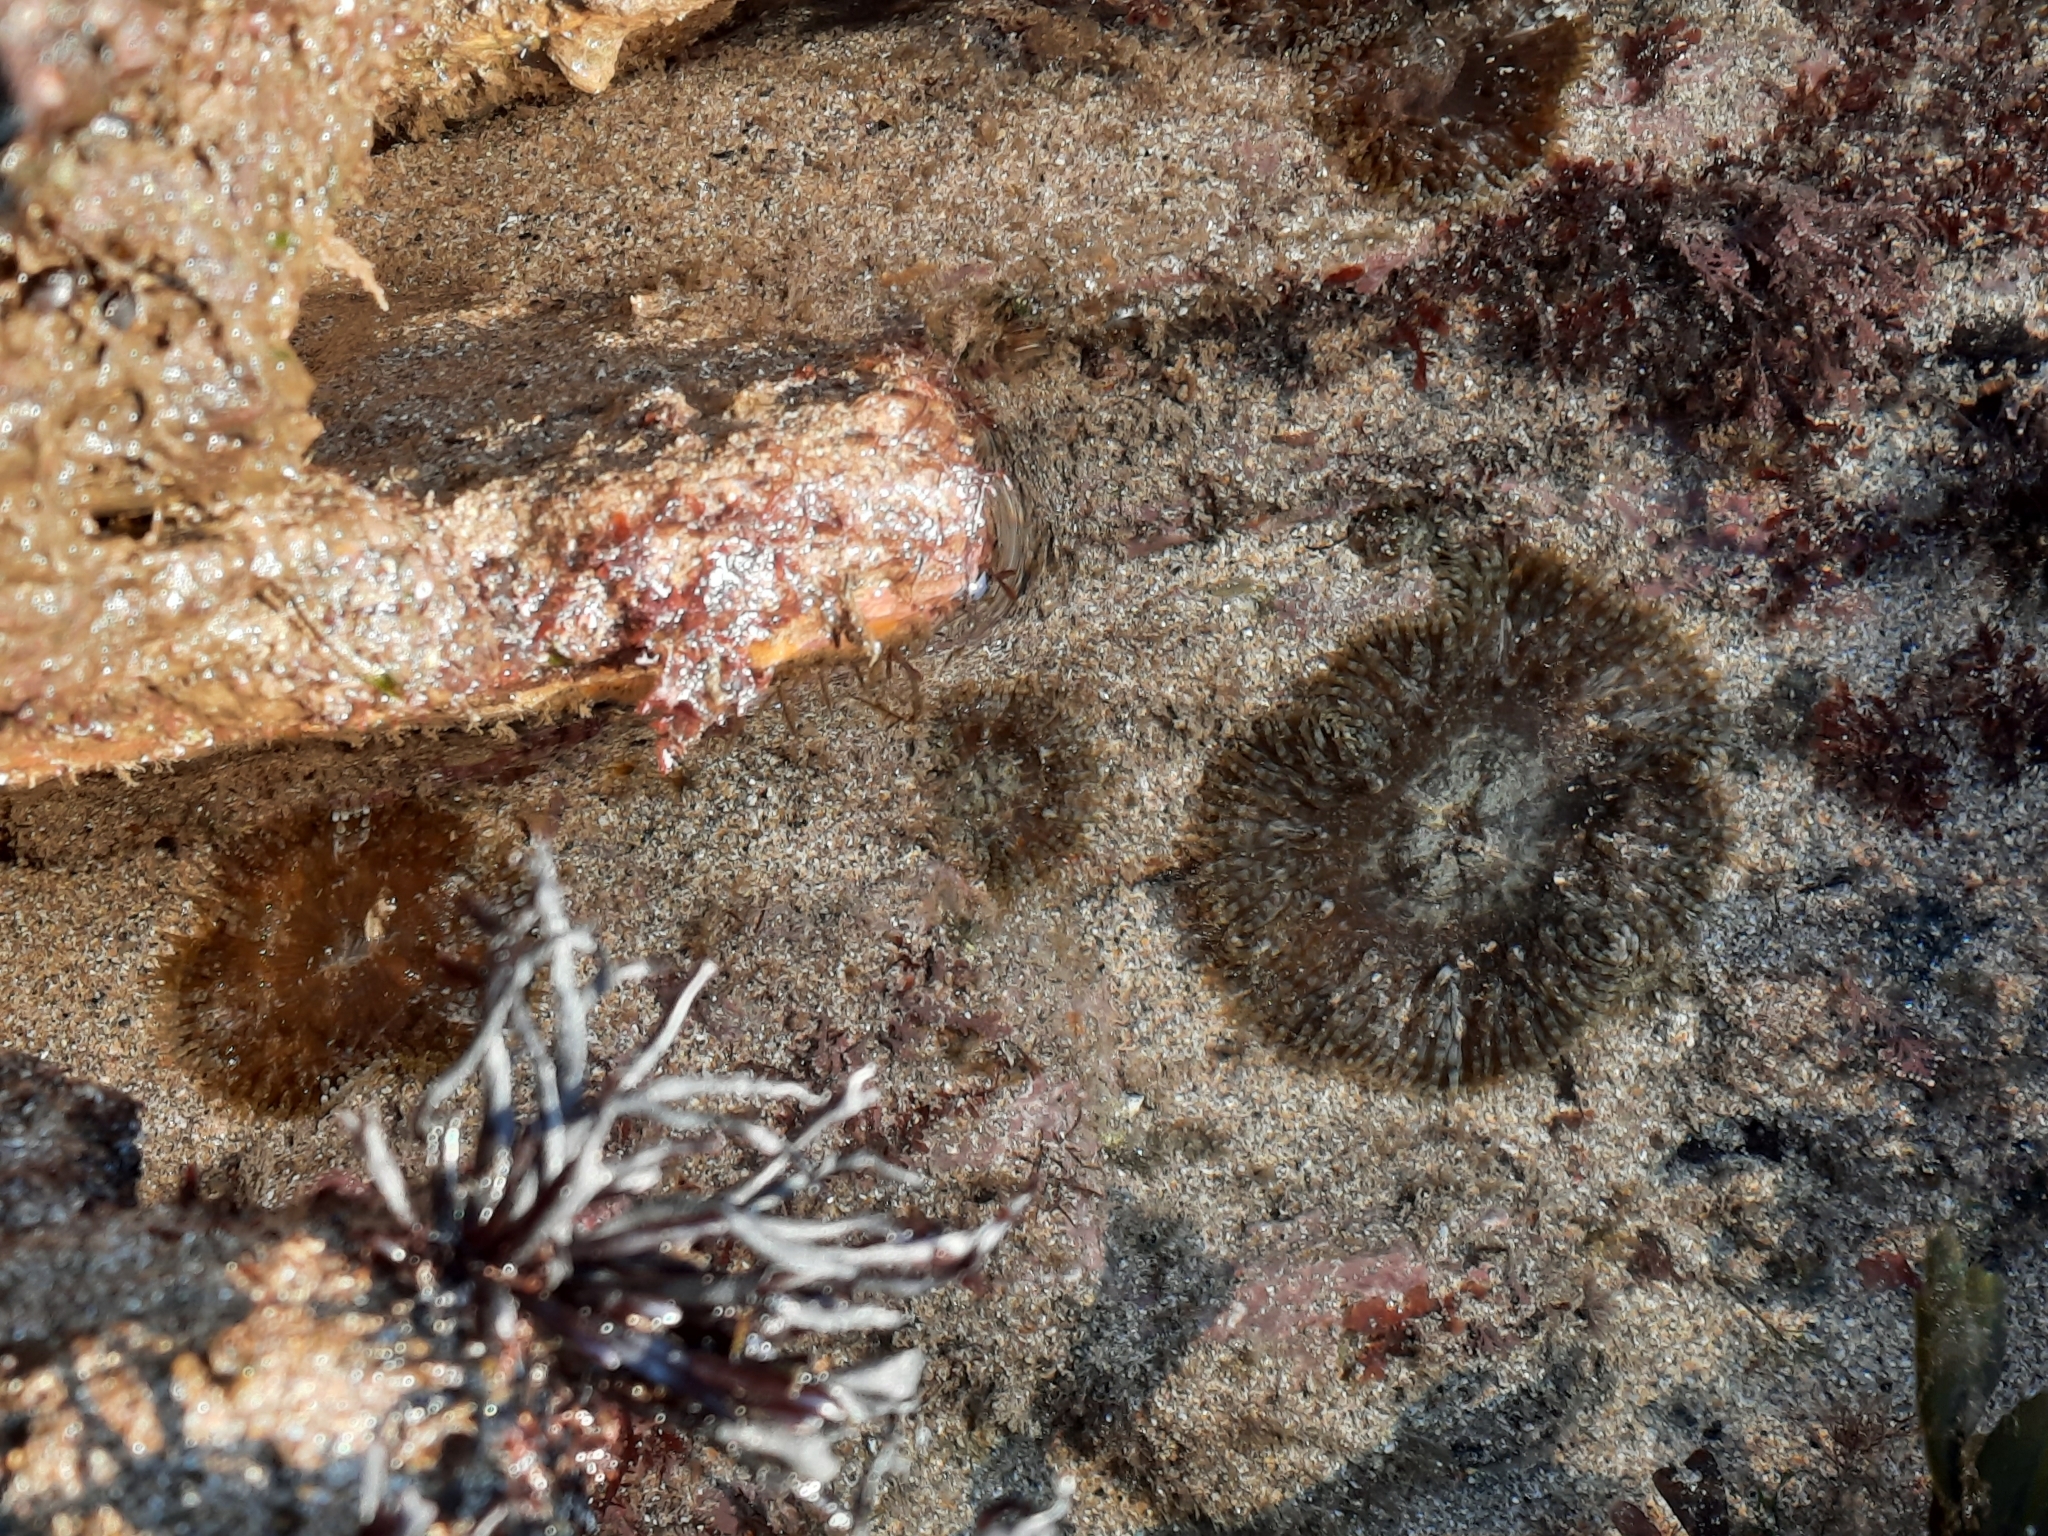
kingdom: Animalia
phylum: Cnidaria
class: Anthozoa
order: Actiniaria
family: Sagartiidae
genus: Cereus
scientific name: Cereus pedunculatus
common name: Daisy anemone
